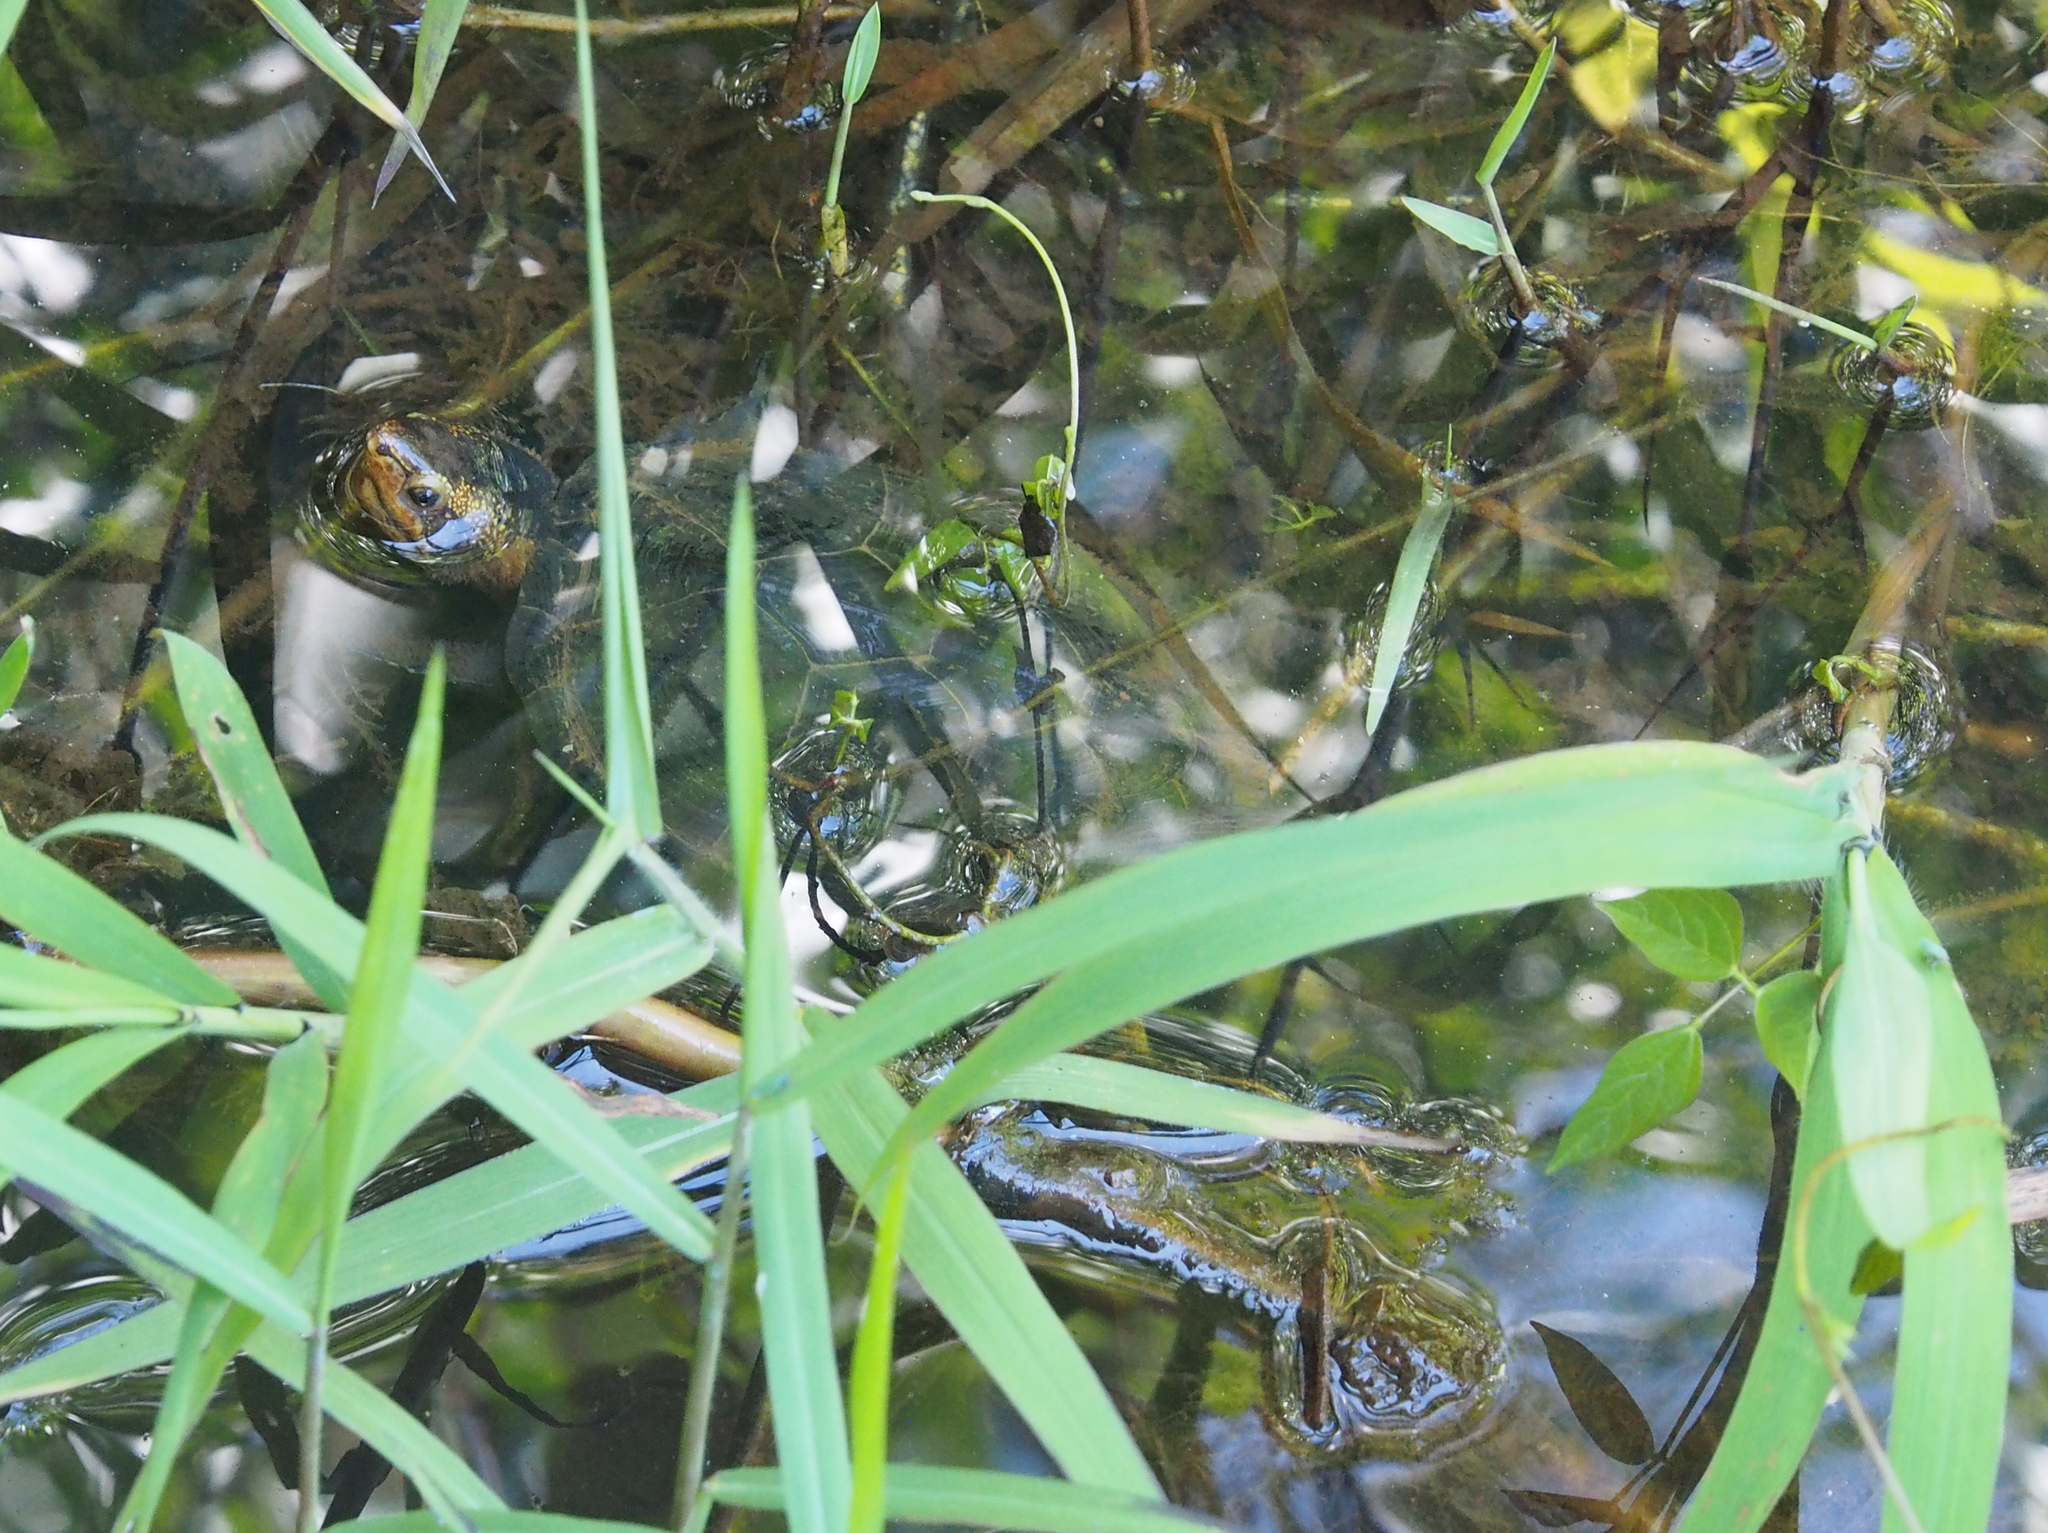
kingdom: Animalia
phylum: Chordata
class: Testudines
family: Kinosternidae
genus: Kinosternon
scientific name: Kinosternon leucostomum
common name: White-lipped mud turtle
